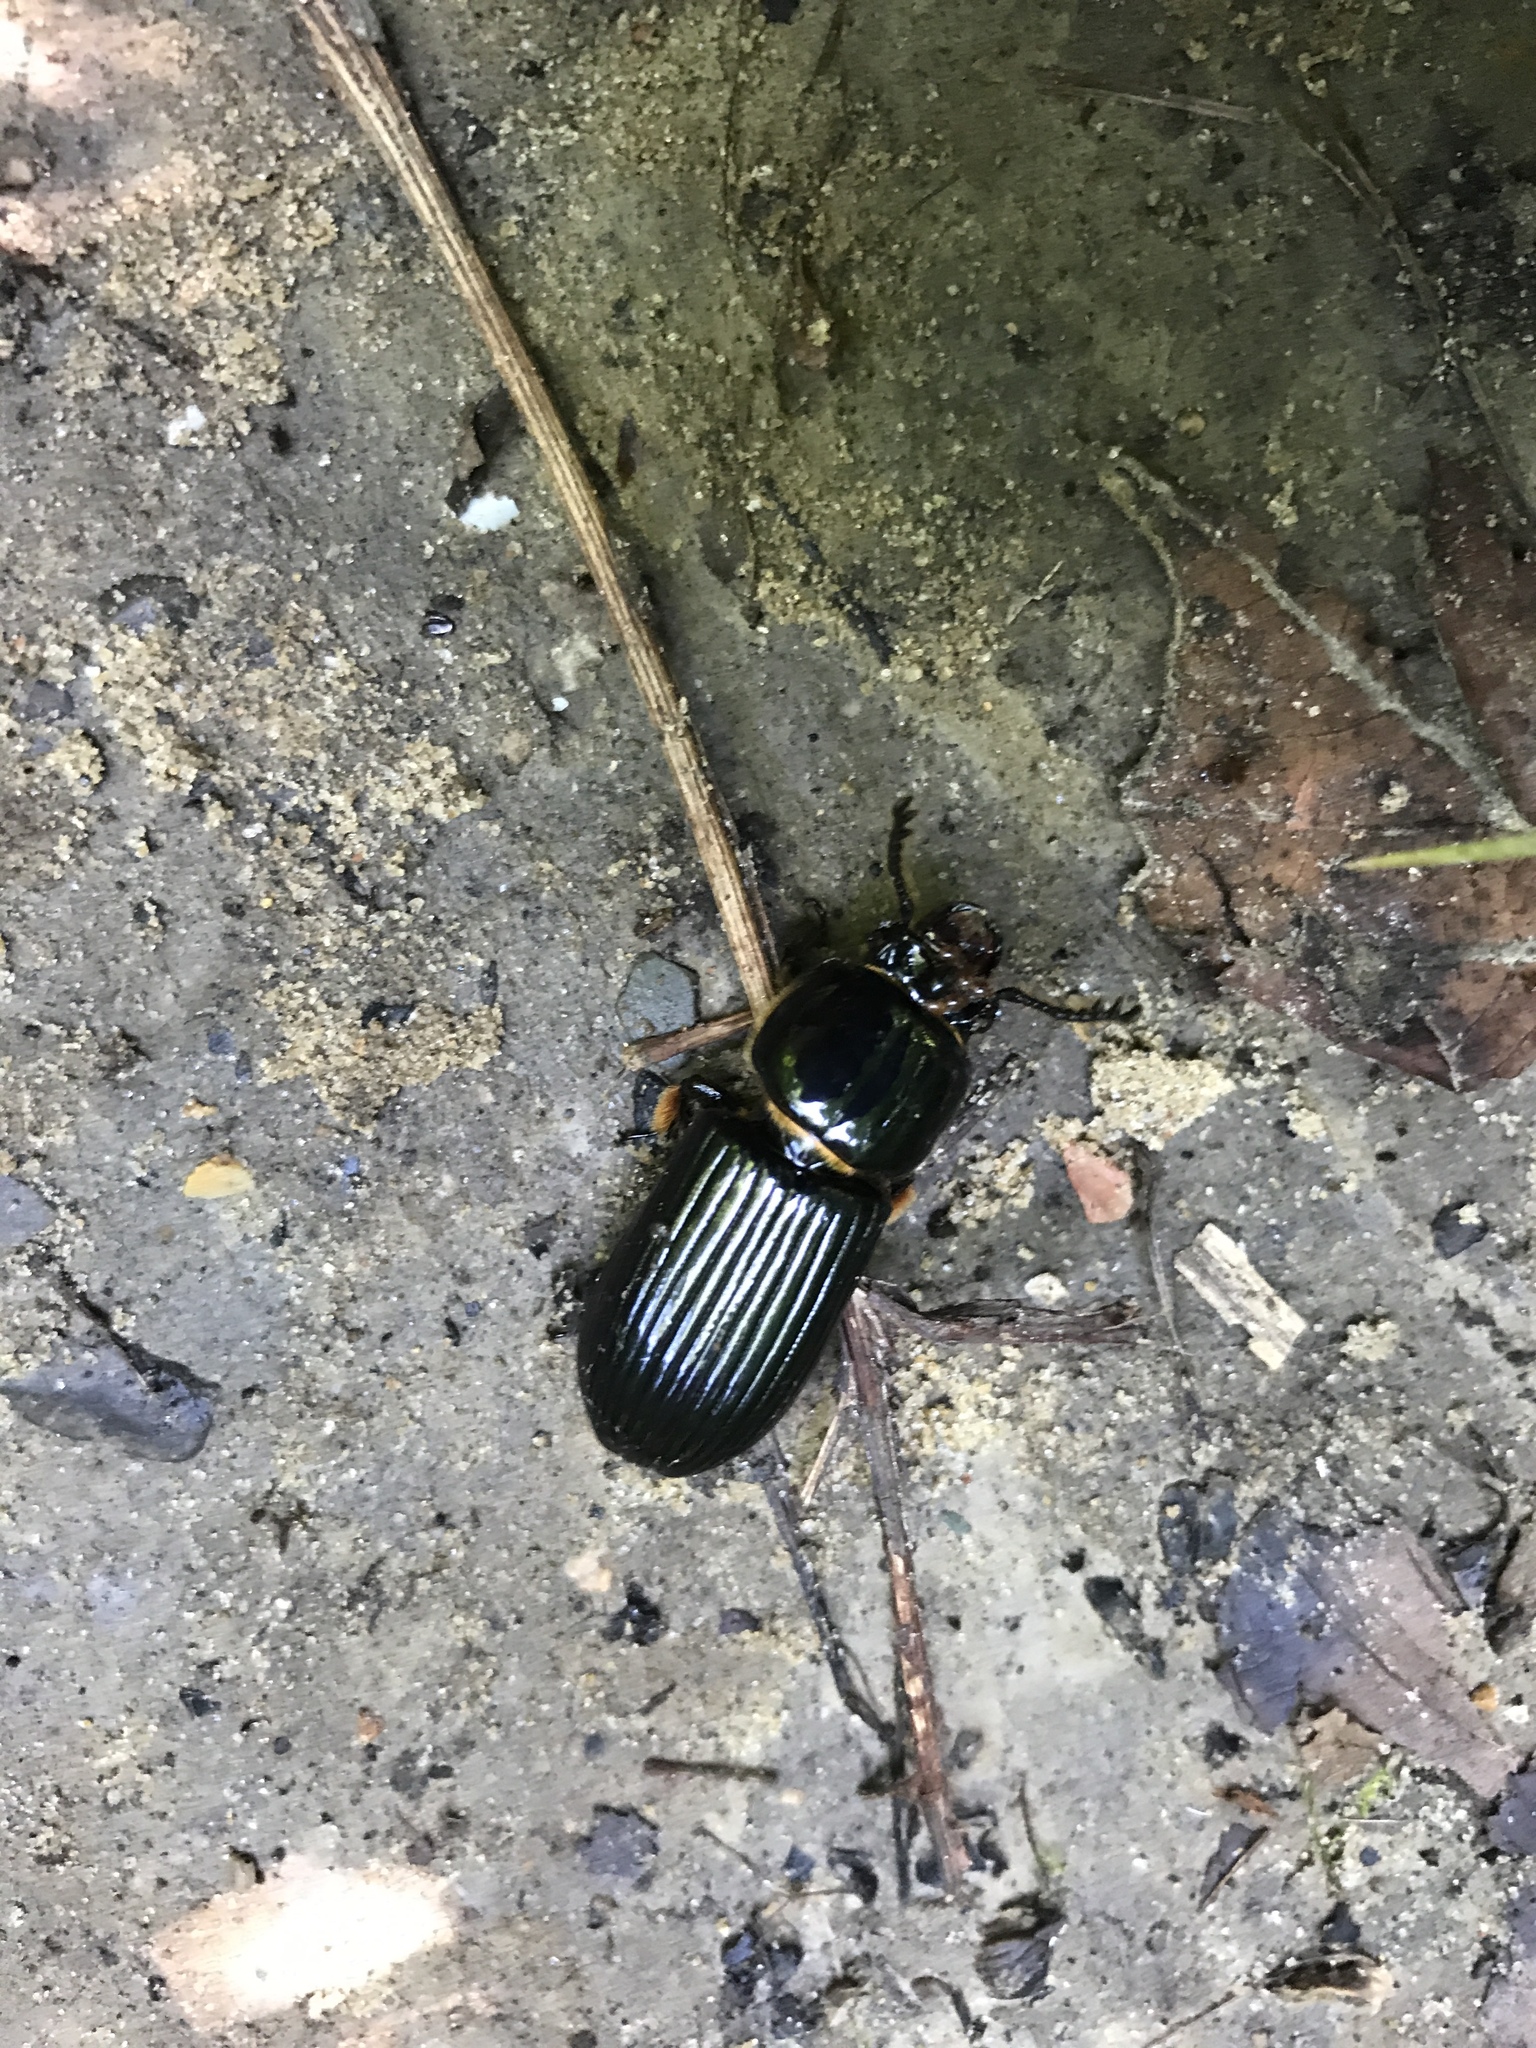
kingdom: Animalia
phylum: Arthropoda
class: Insecta
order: Coleoptera
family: Passalidae
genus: Odontotaenius
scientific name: Odontotaenius disjunctus
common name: Patent leather beetle
